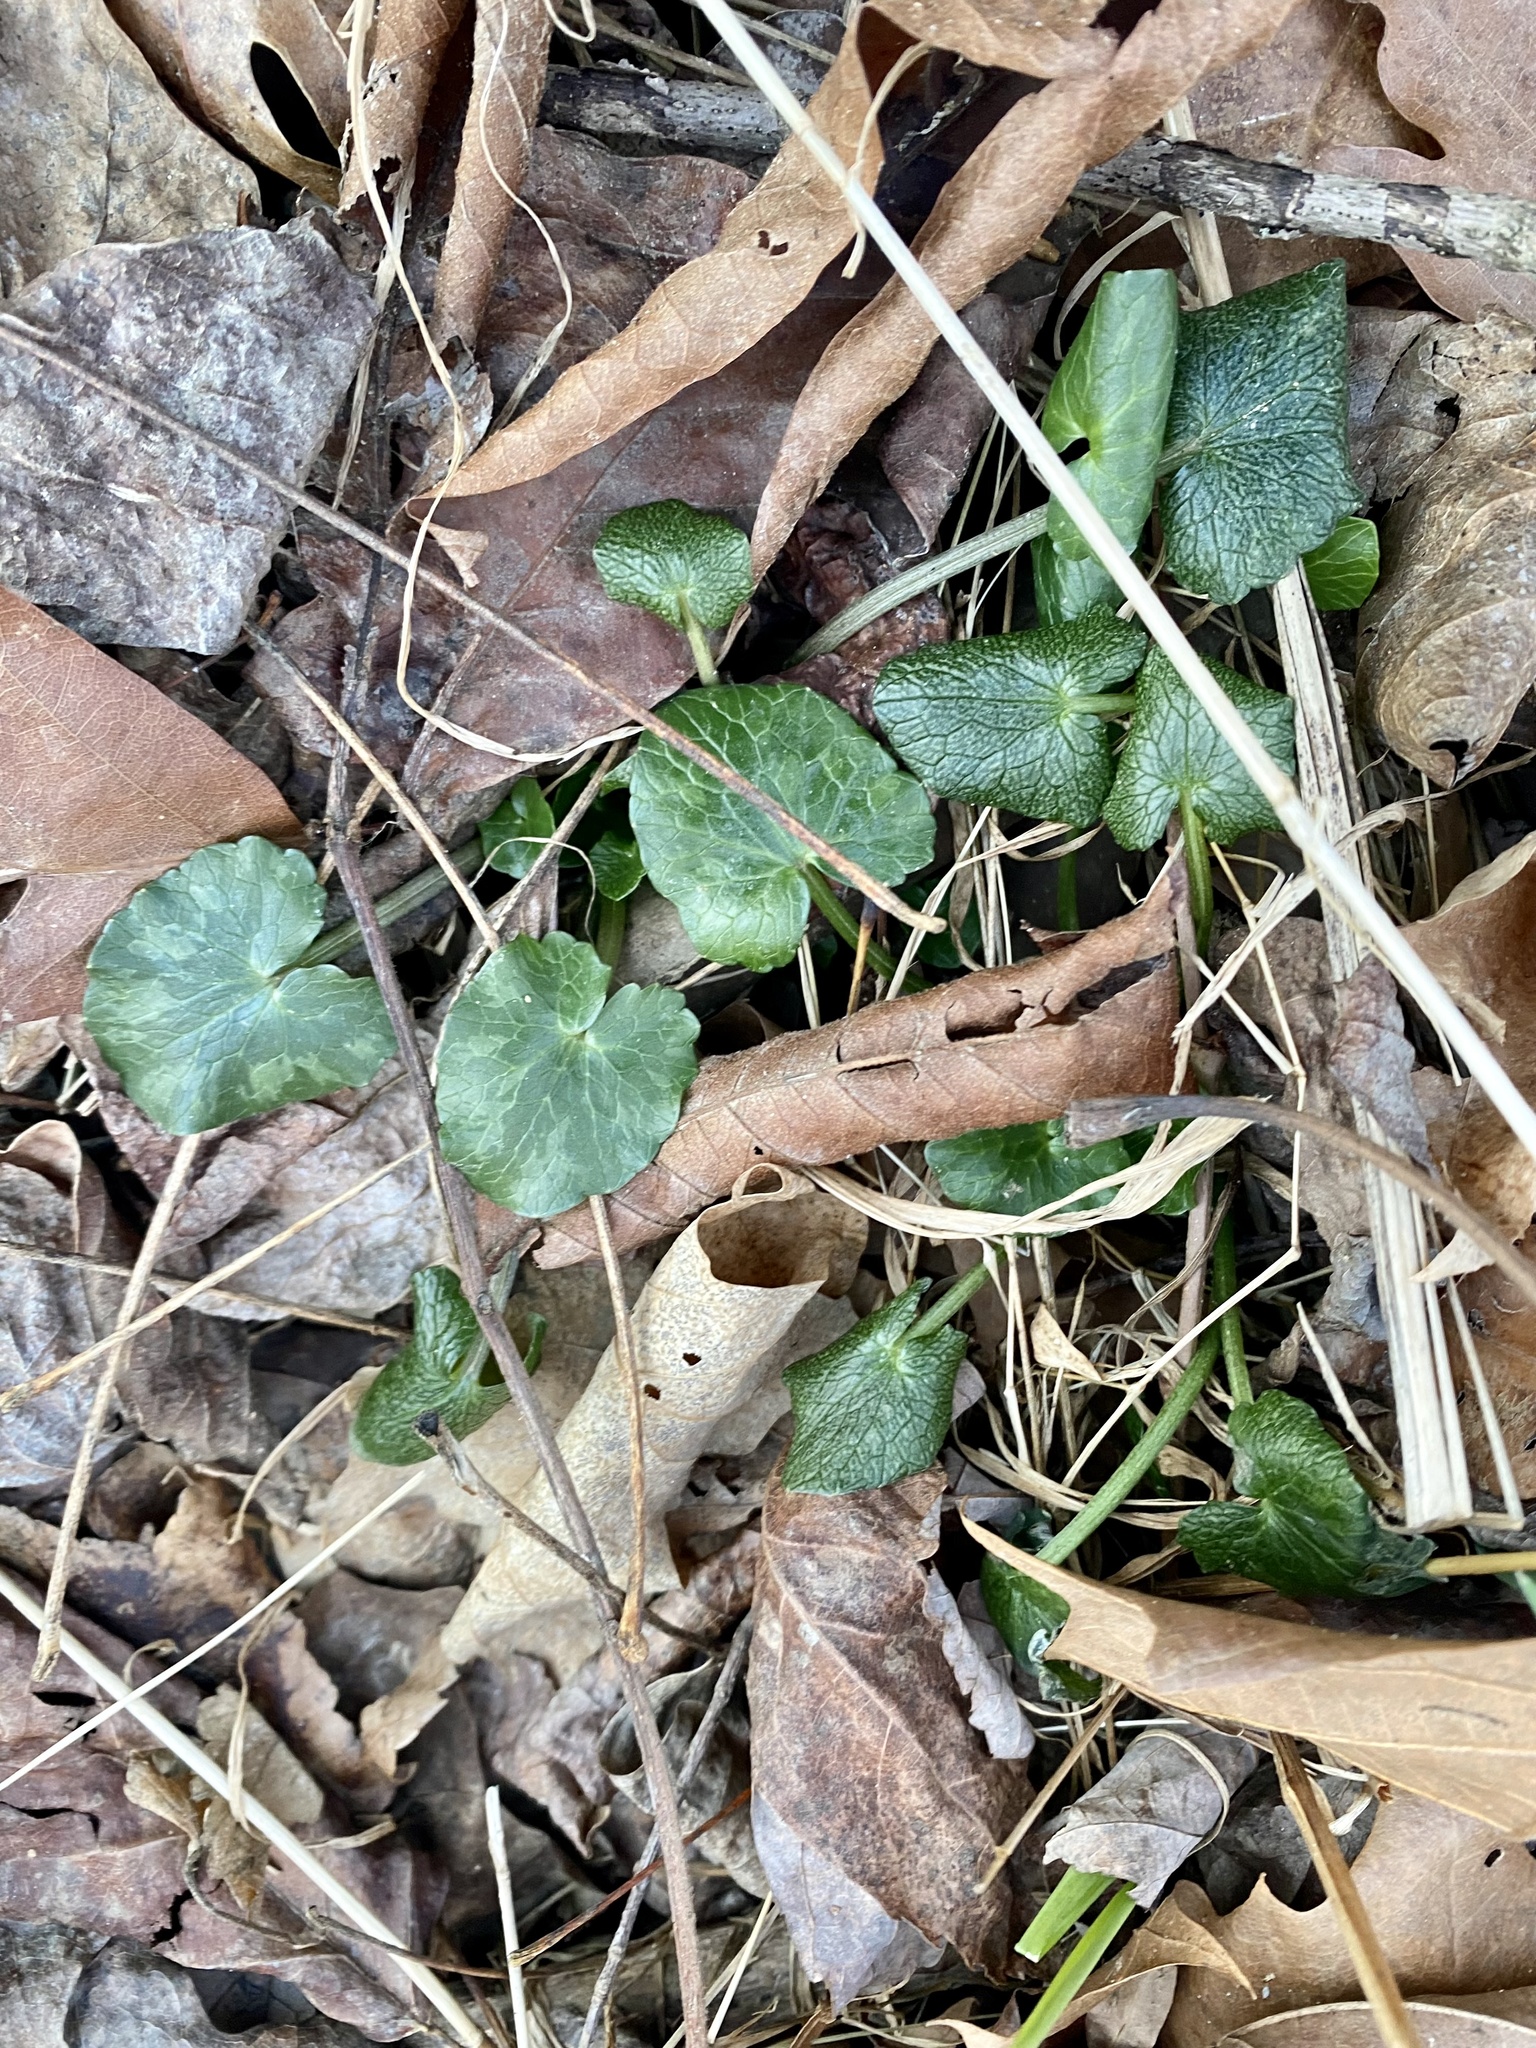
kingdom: Plantae
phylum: Tracheophyta
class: Magnoliopsida
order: Ranunculales
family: Ranunculaceae
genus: Ficaria
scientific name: Ficaria verna
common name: Lesser celandine
